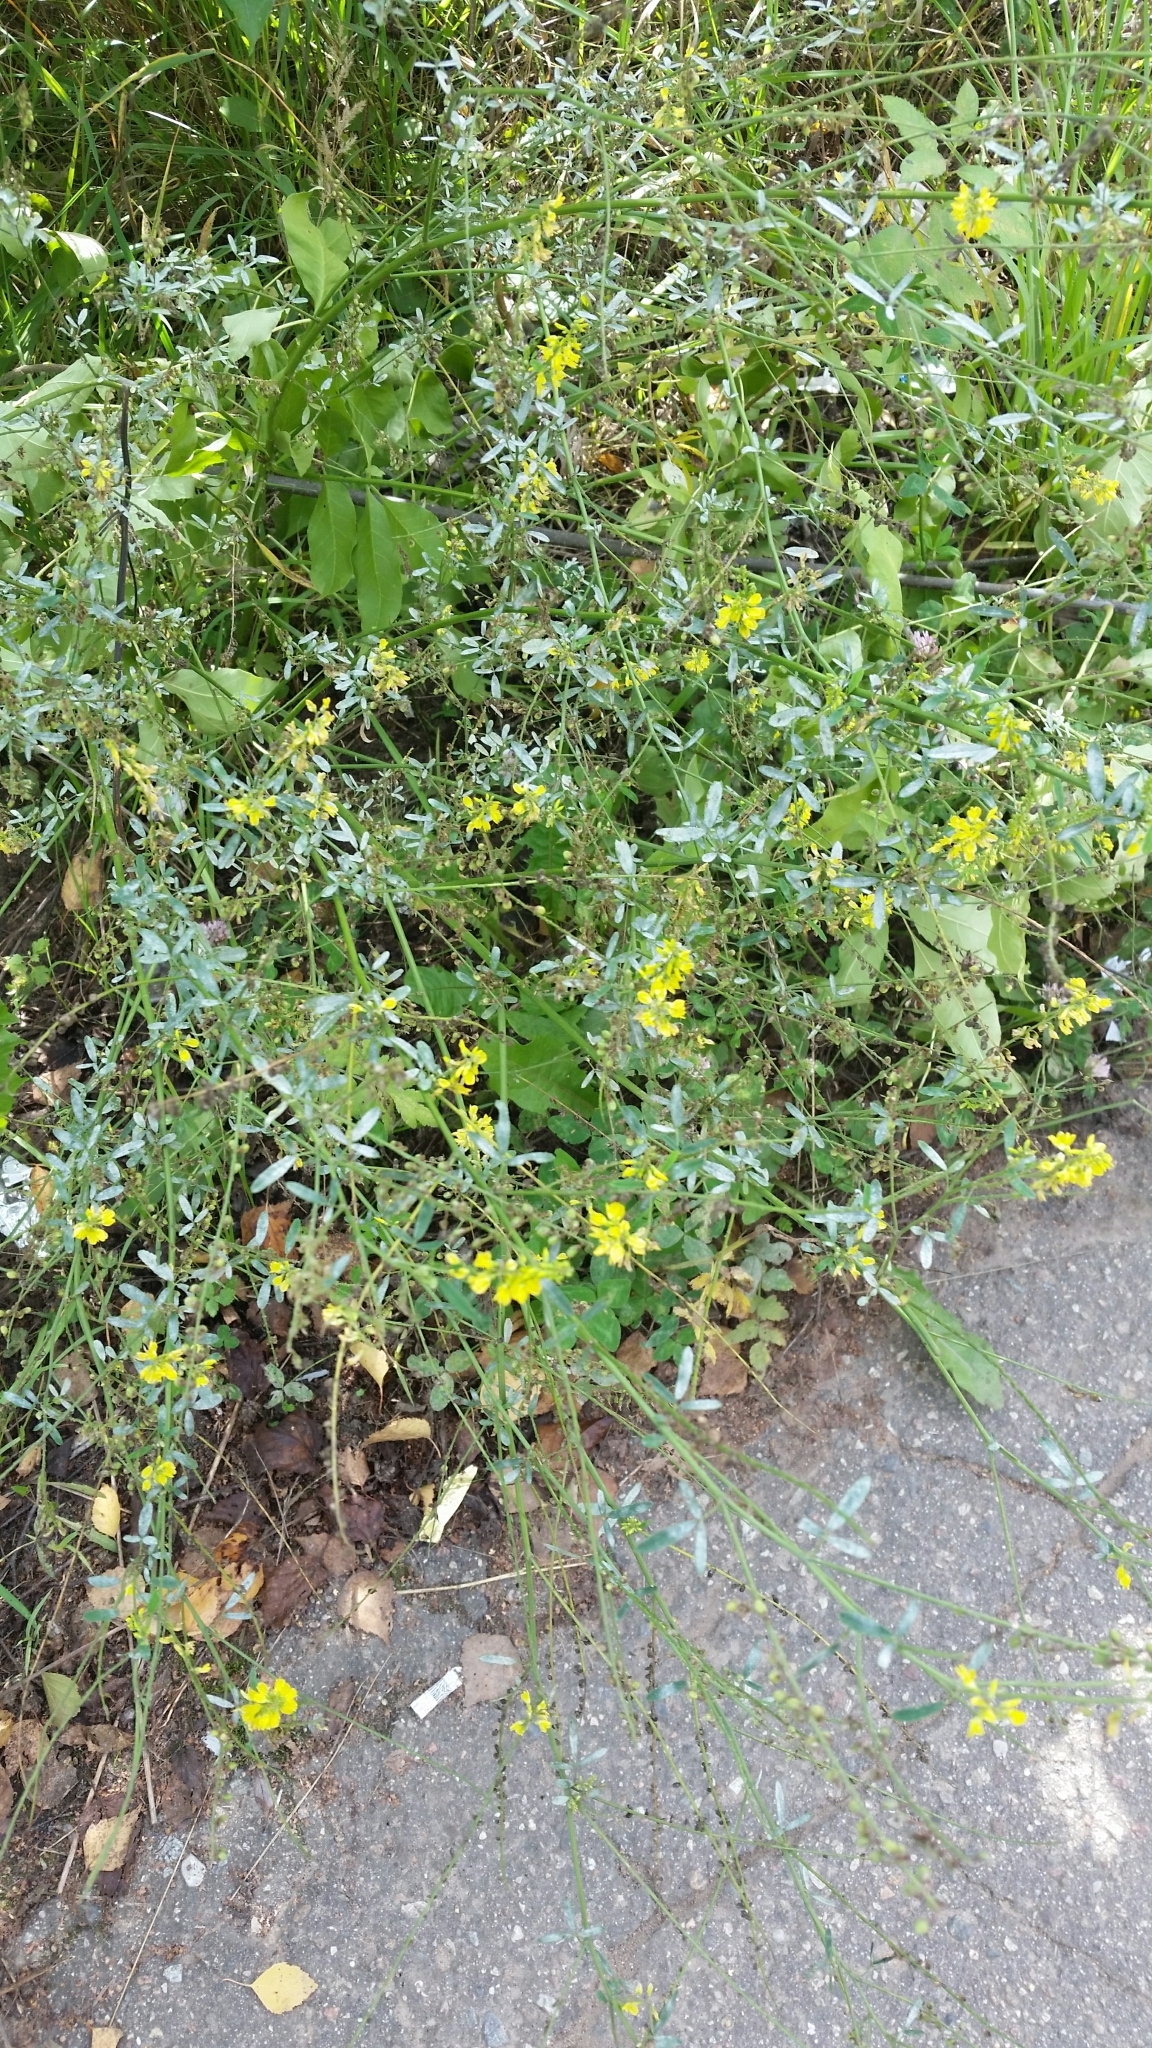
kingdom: Plantae
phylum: Tracheophyta
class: Magnoliopsida
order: Fabales
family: Fabaceae
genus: Melilotus
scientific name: Melilotus officinalis
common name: Sweetclover
